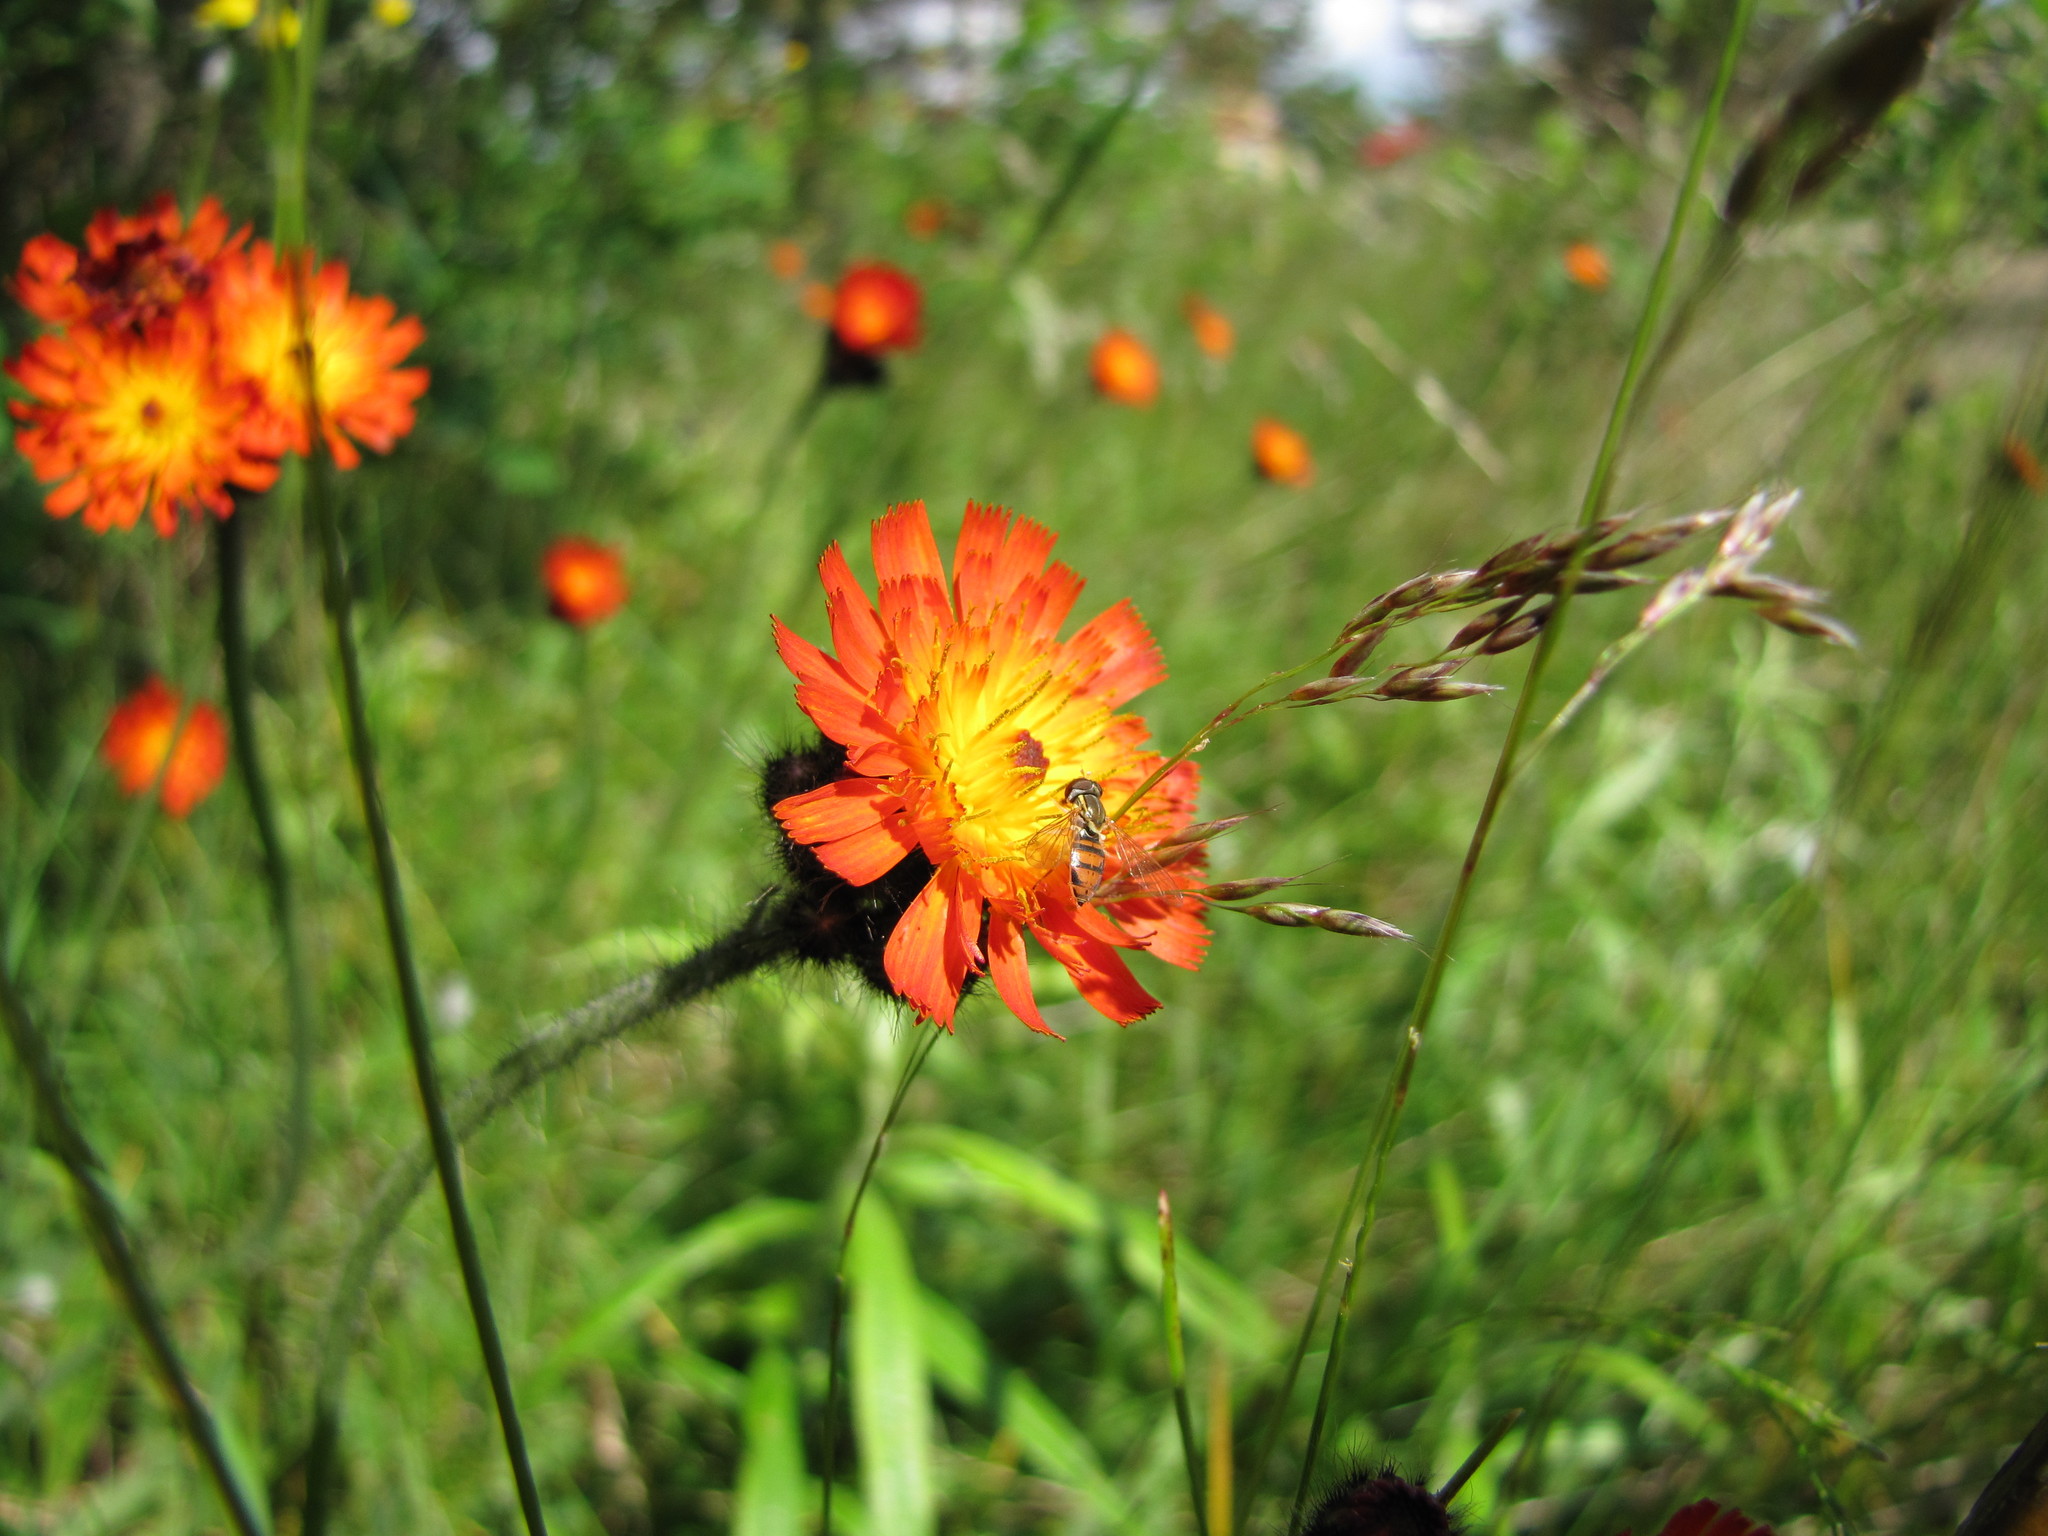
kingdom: Plantae
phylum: Tracheophyta
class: Magnoliopsida
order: Asterales
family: Asteraceae
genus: Pilosella
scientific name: Pilosella aurantiaca
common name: Fox-and-cubs
